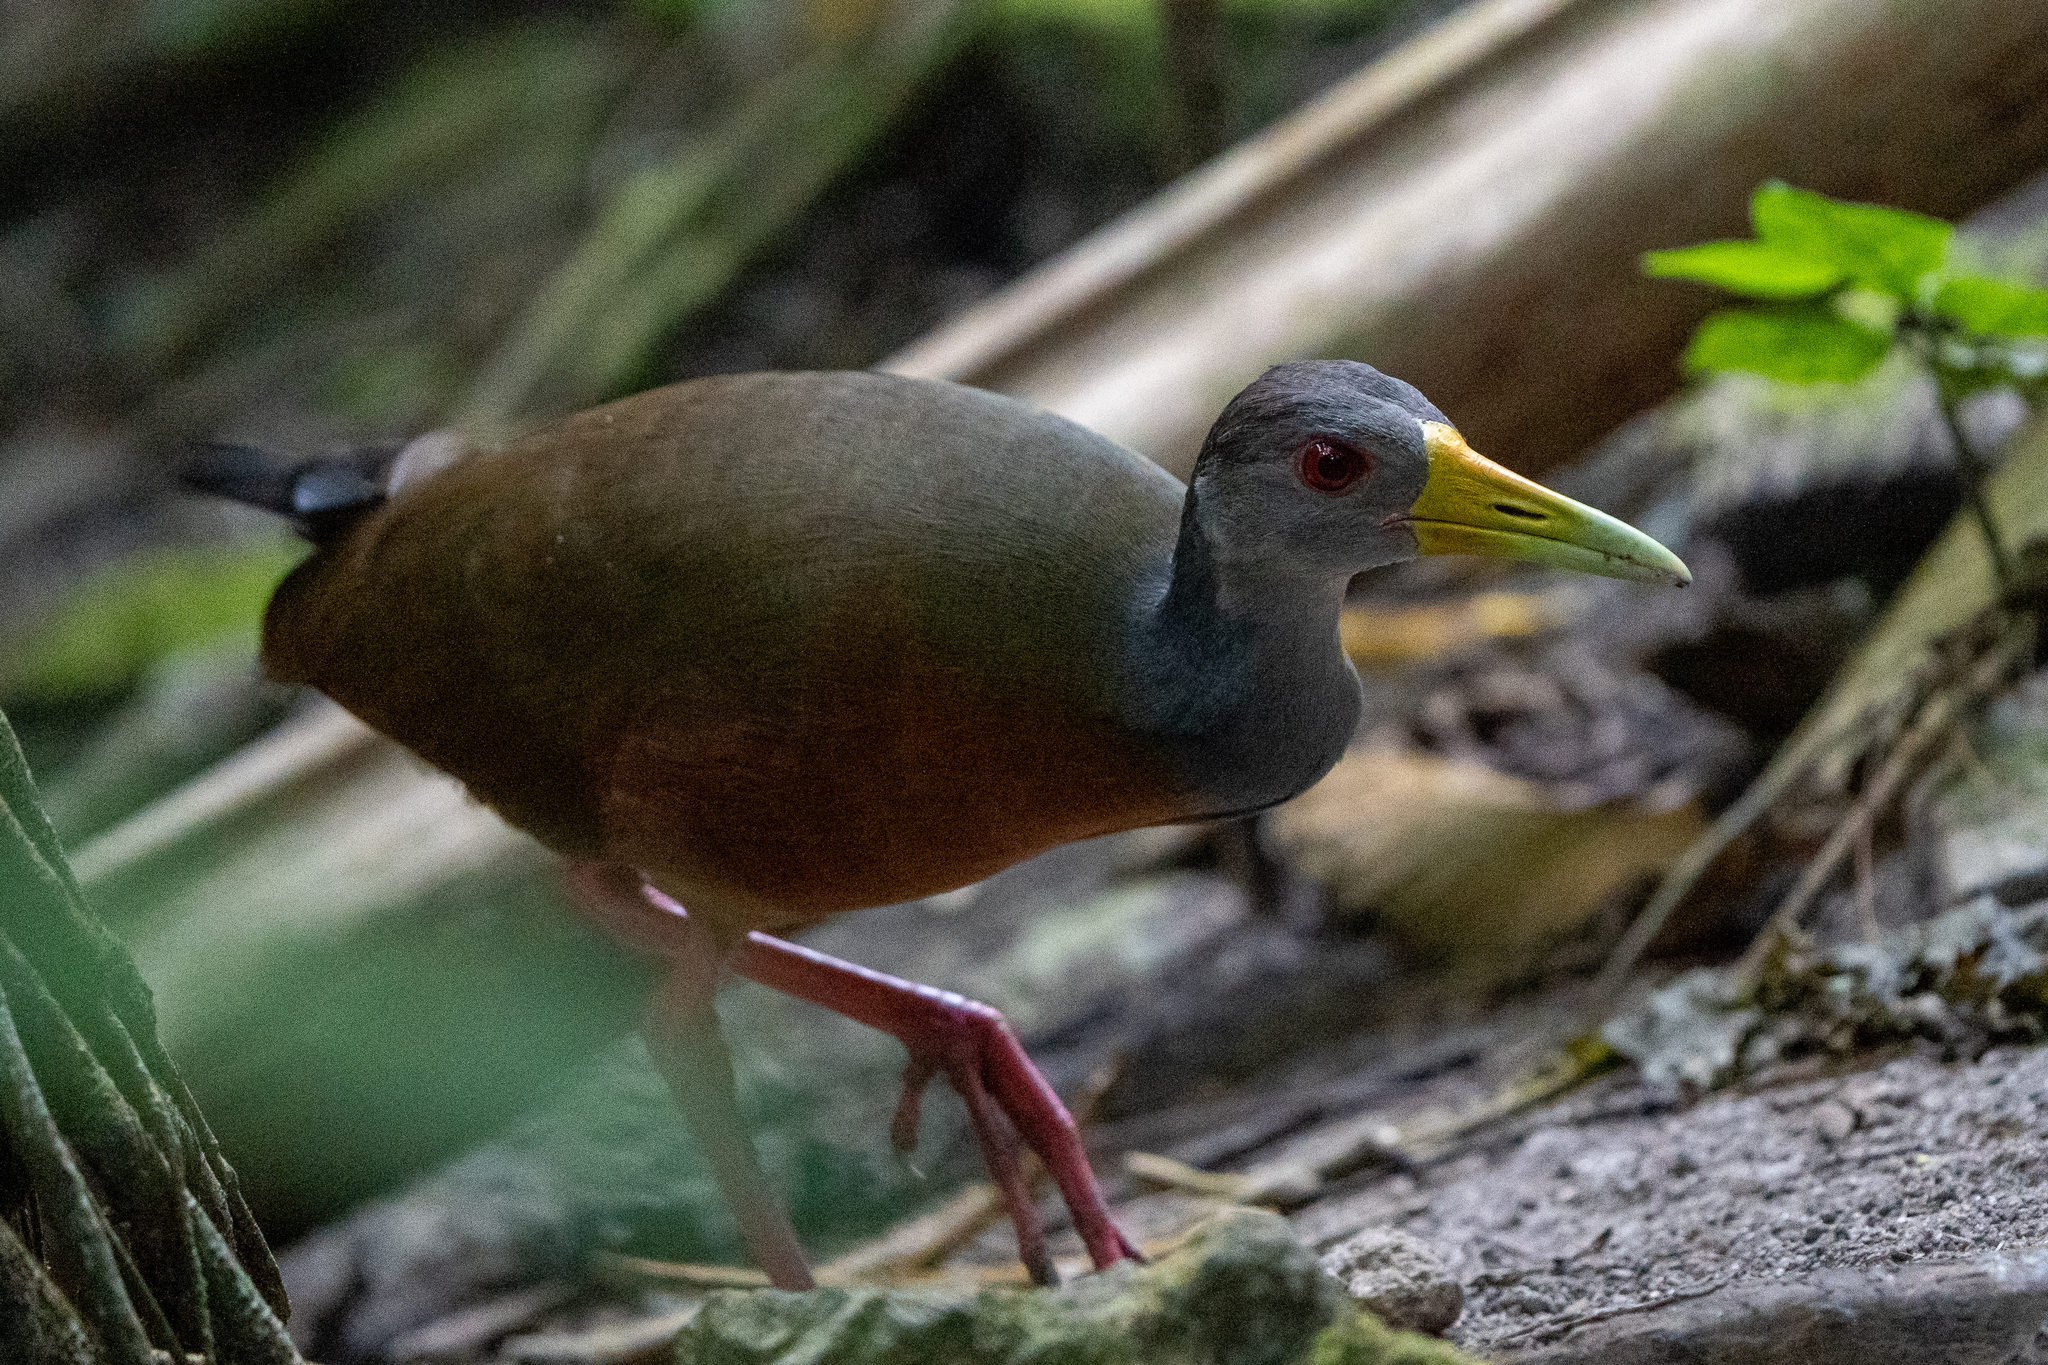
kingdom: Animalia
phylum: Chordata
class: Aves
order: Gruiformes
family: Rallidae
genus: Aramides
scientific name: Aramides cajanea
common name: Gray-necked wood-rail
